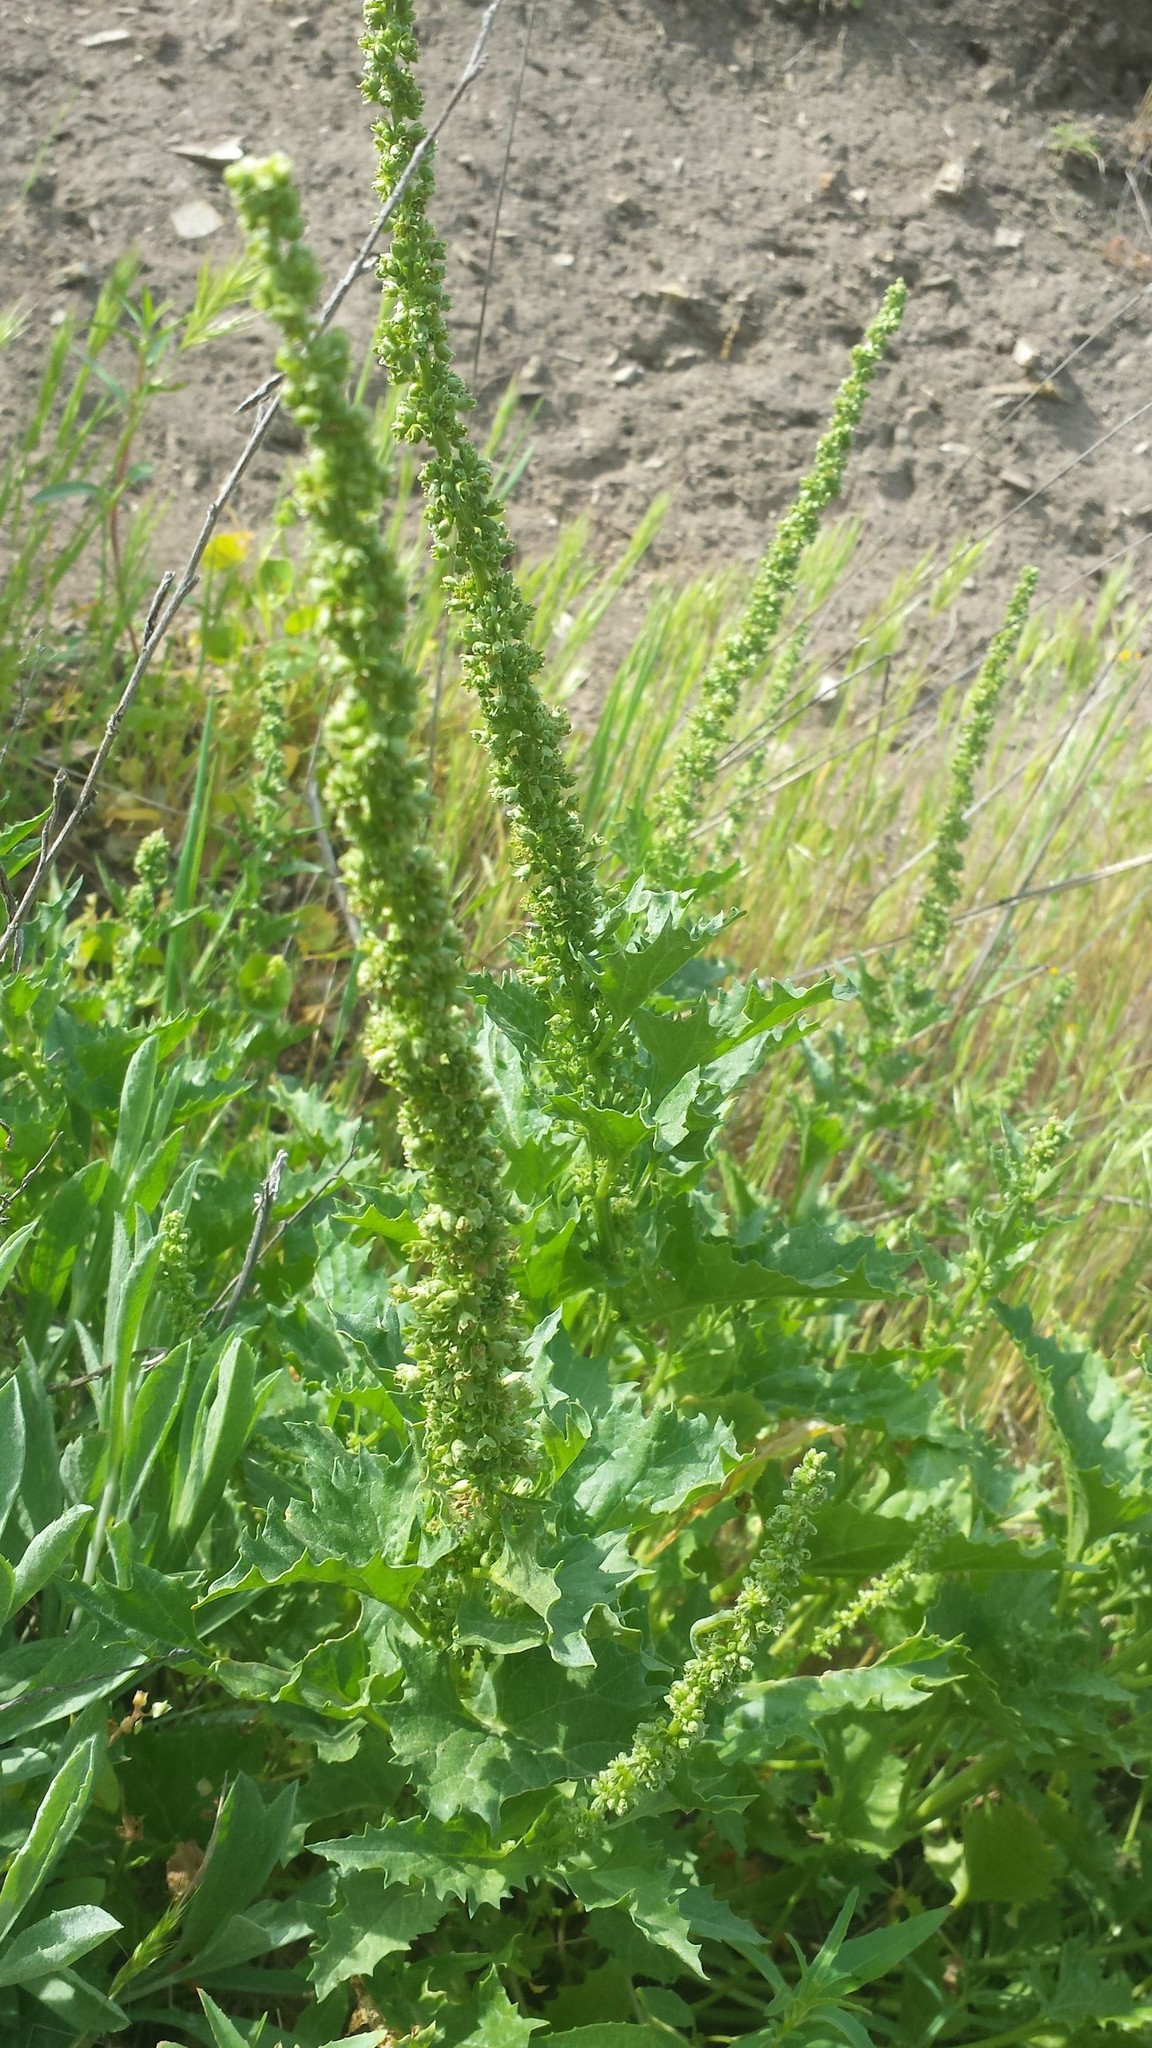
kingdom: Plantae
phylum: Tracheophyta
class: Magnoliopsida
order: Caryophyllales
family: Amaranthaceae
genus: Blitum
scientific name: Blitum californicum
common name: California goosefoot
